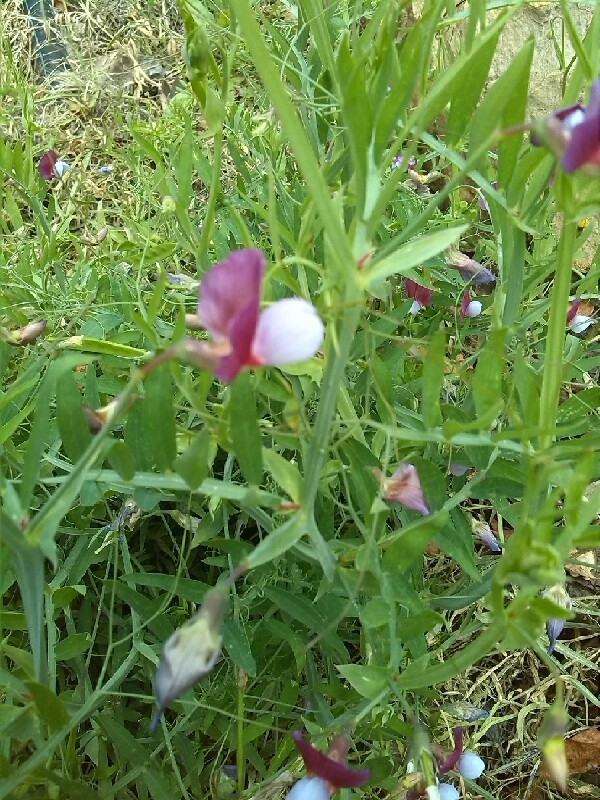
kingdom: Plantae
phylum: Tracheophyta
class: Magnoliopsida
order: Fabales
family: Fabaceae
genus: Lathyrus
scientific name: Lathyrus clymenum
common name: Spanish vetchling
